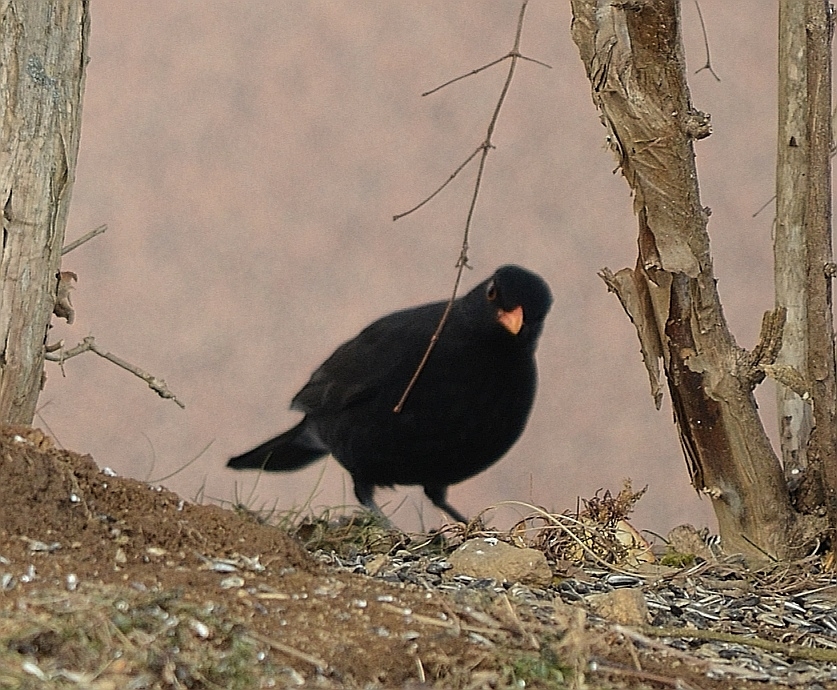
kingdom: Animalia
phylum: Chordata
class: Aves
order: Passeriformes
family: Turdidae
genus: Turdus
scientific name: Turdus merula
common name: Common blackbird
